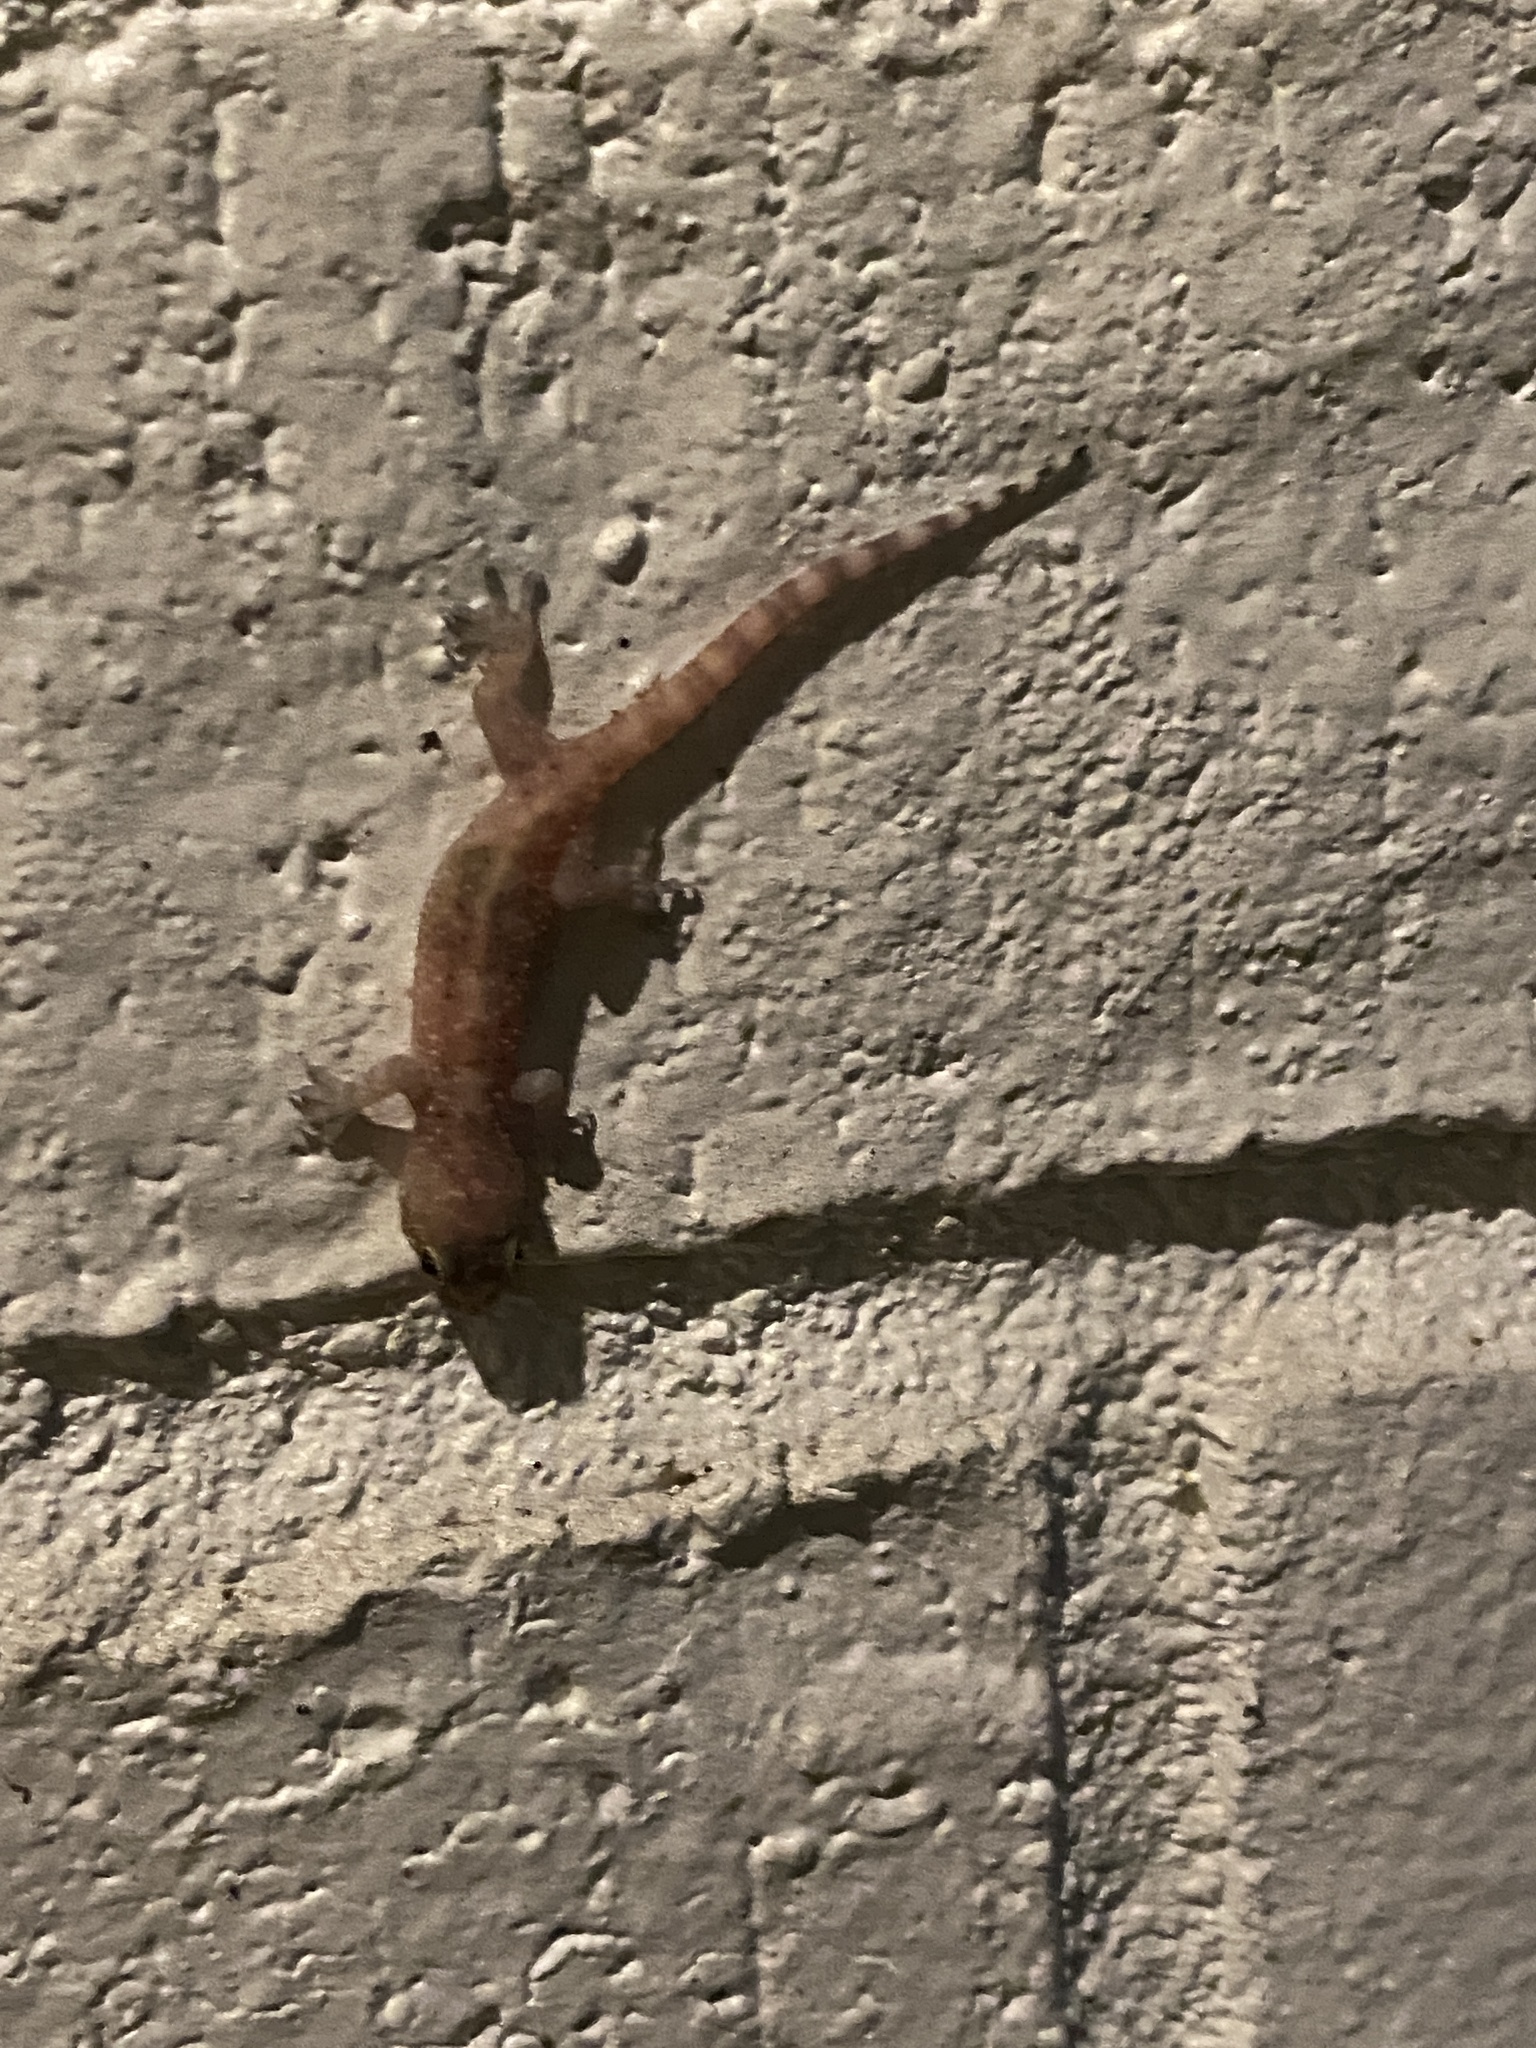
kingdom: Animalia
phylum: Chordata
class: Squamata
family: Gekkonidae
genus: Hemidactylus
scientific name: Hemidactylus turcicus
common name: Turkish gecko
